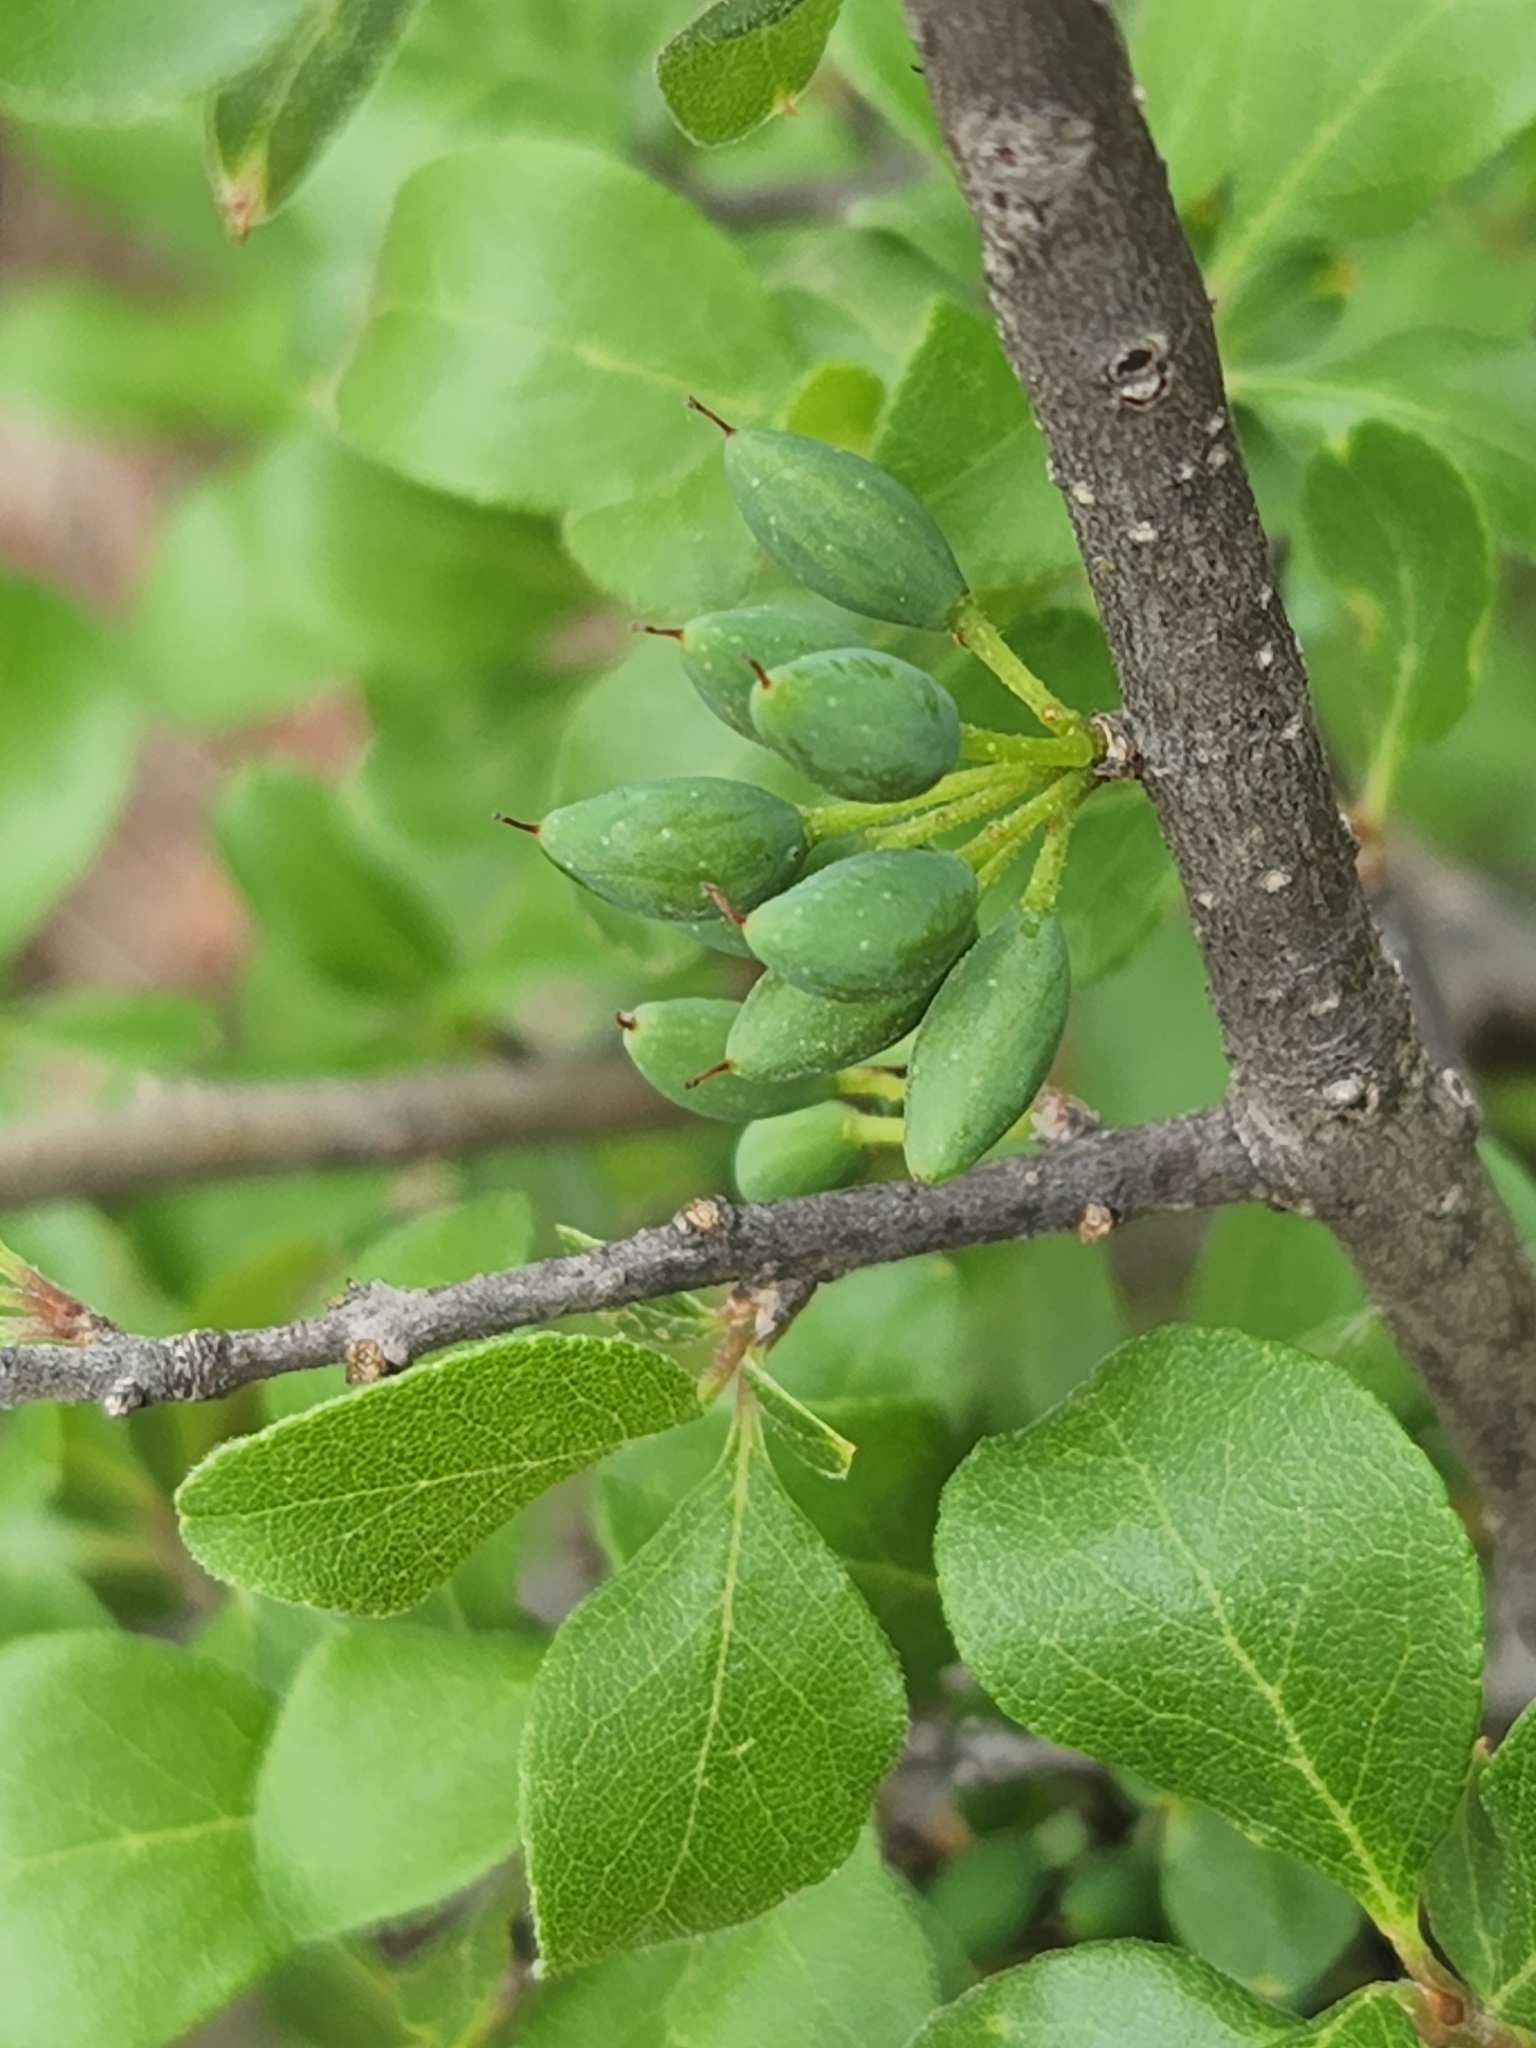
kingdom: Plantae
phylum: Tracheophyta
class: Magnoliopsida
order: Lamiales
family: Oleaceae
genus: Forestiera
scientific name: Forestiera pubescens
